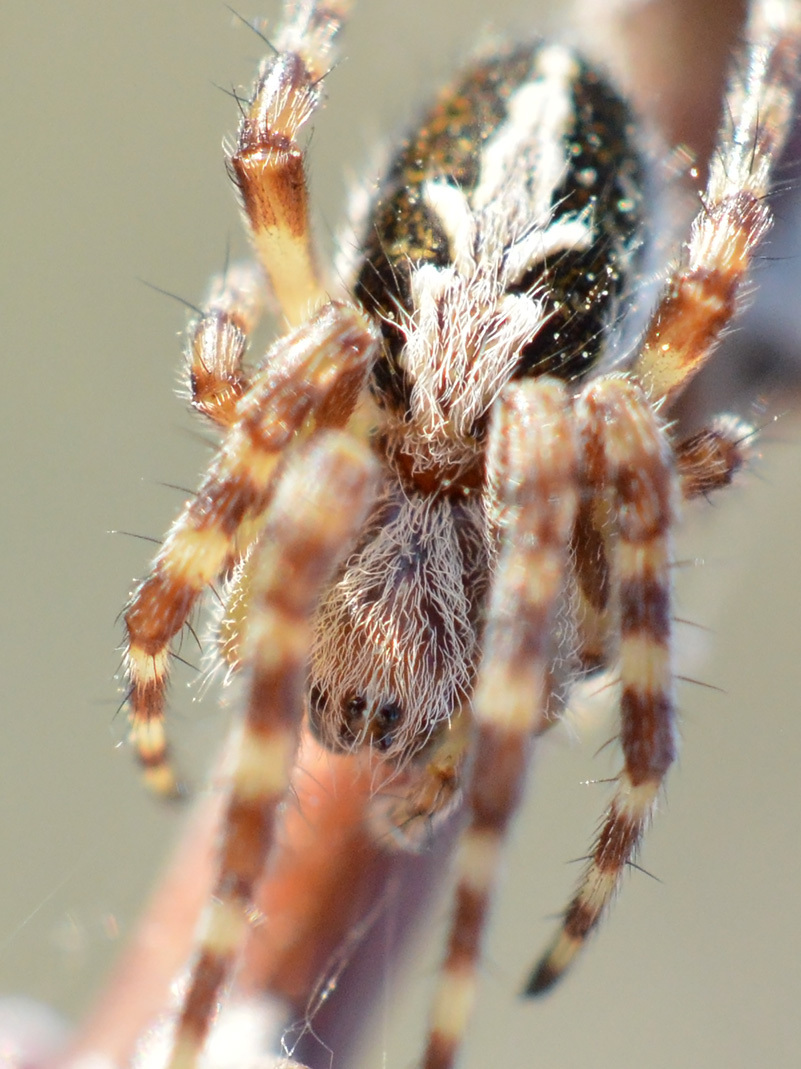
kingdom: Animalia
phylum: Arthropoda
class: Arachnida
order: Araneae
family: Araneidae
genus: Aculepeira
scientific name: Aculepeira ceropegia
